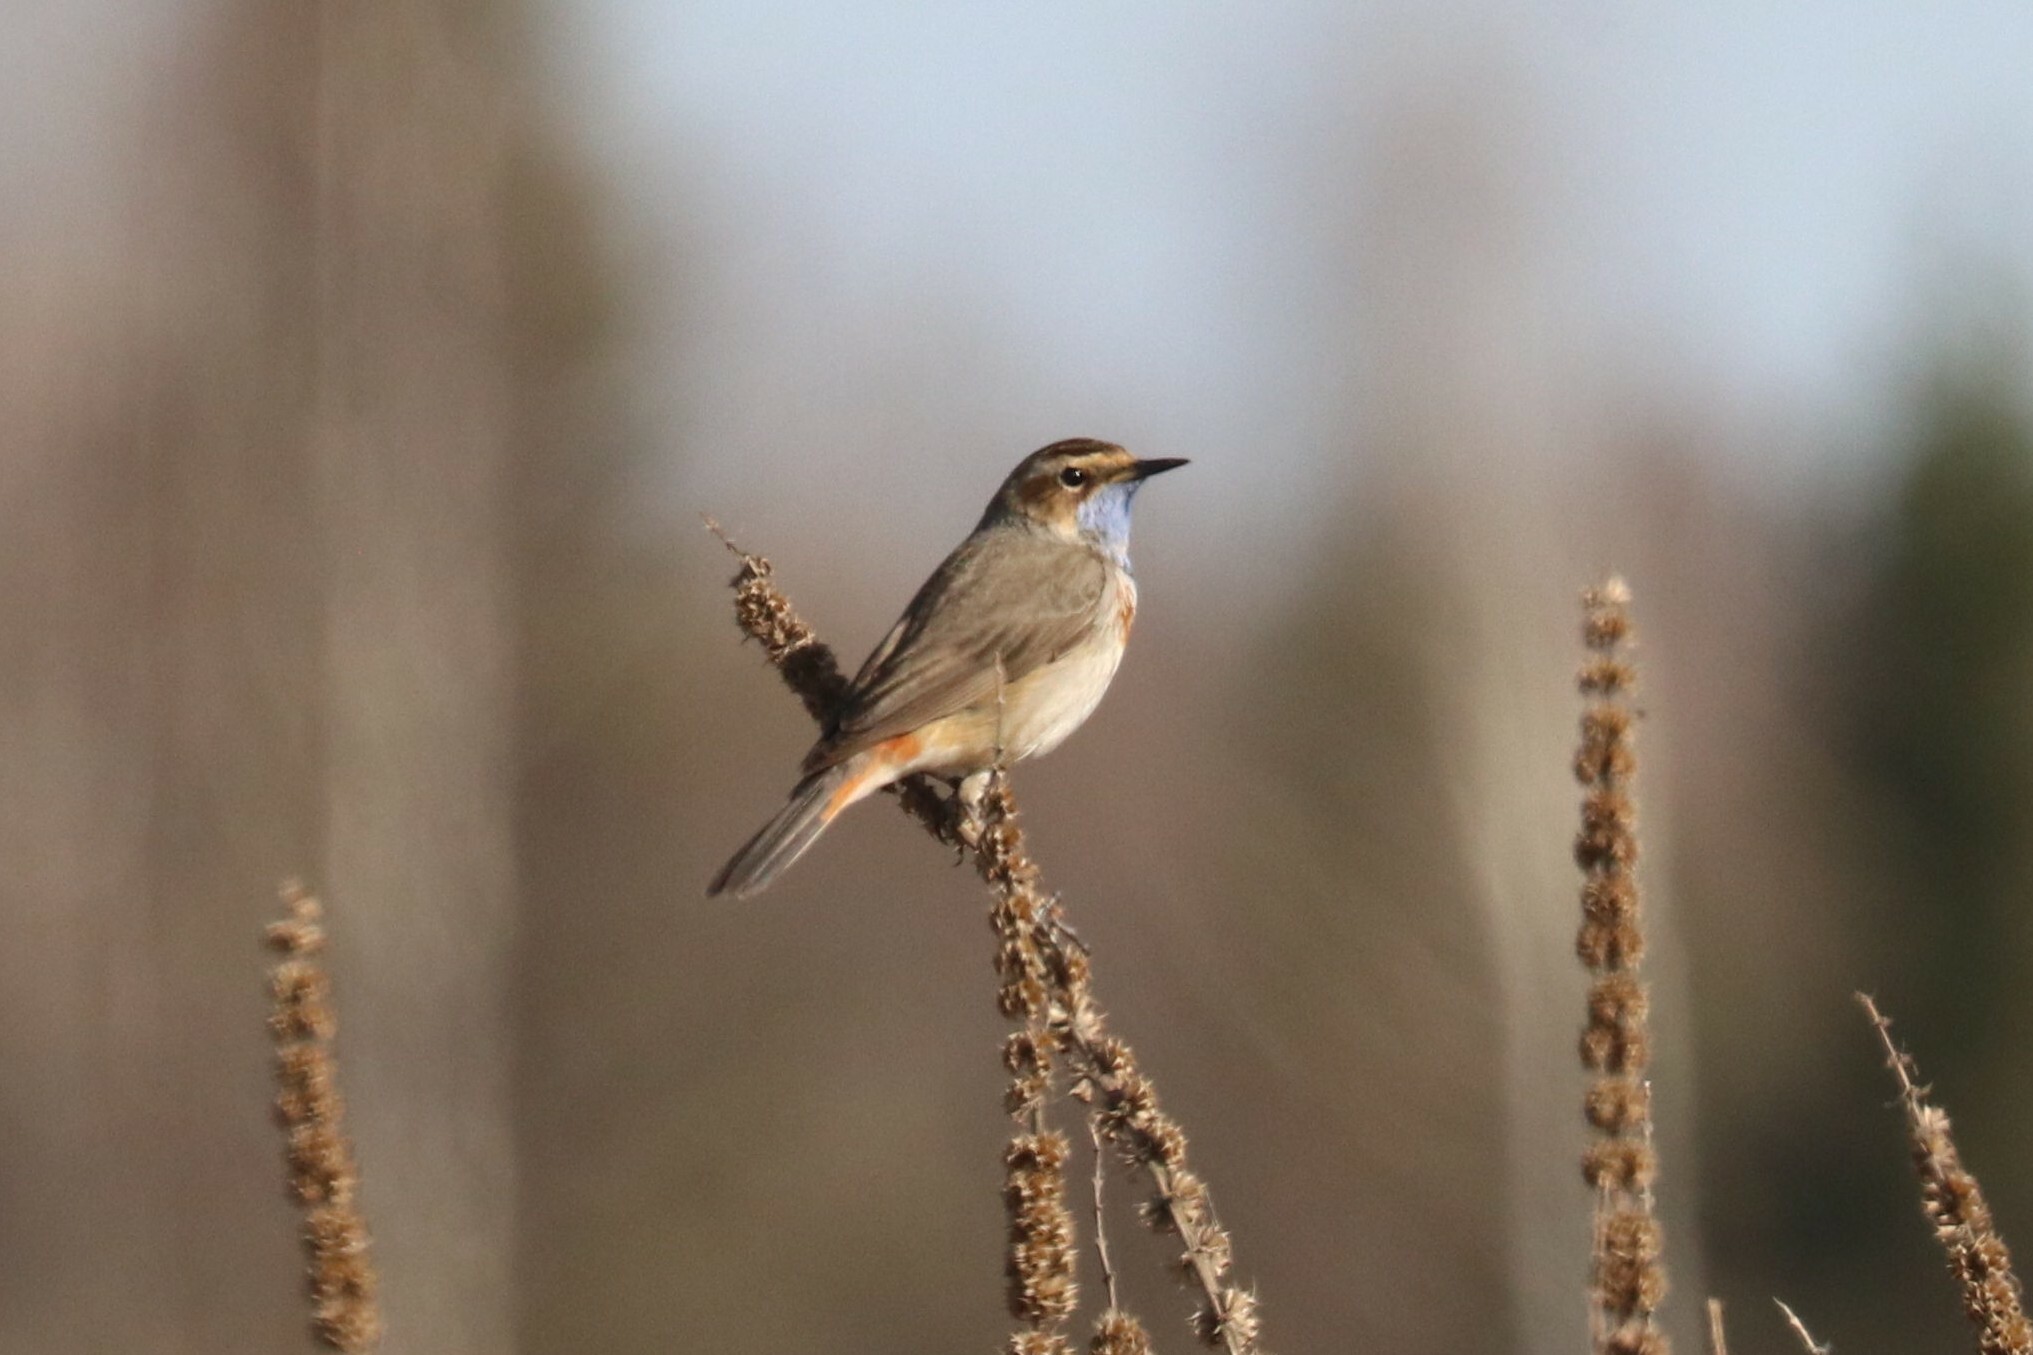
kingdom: Animalia
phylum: Chordata
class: Aves
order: Passeriformes
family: Muscicapidae
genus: Luscinia
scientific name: Luscinia svecica
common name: Bluethroat
